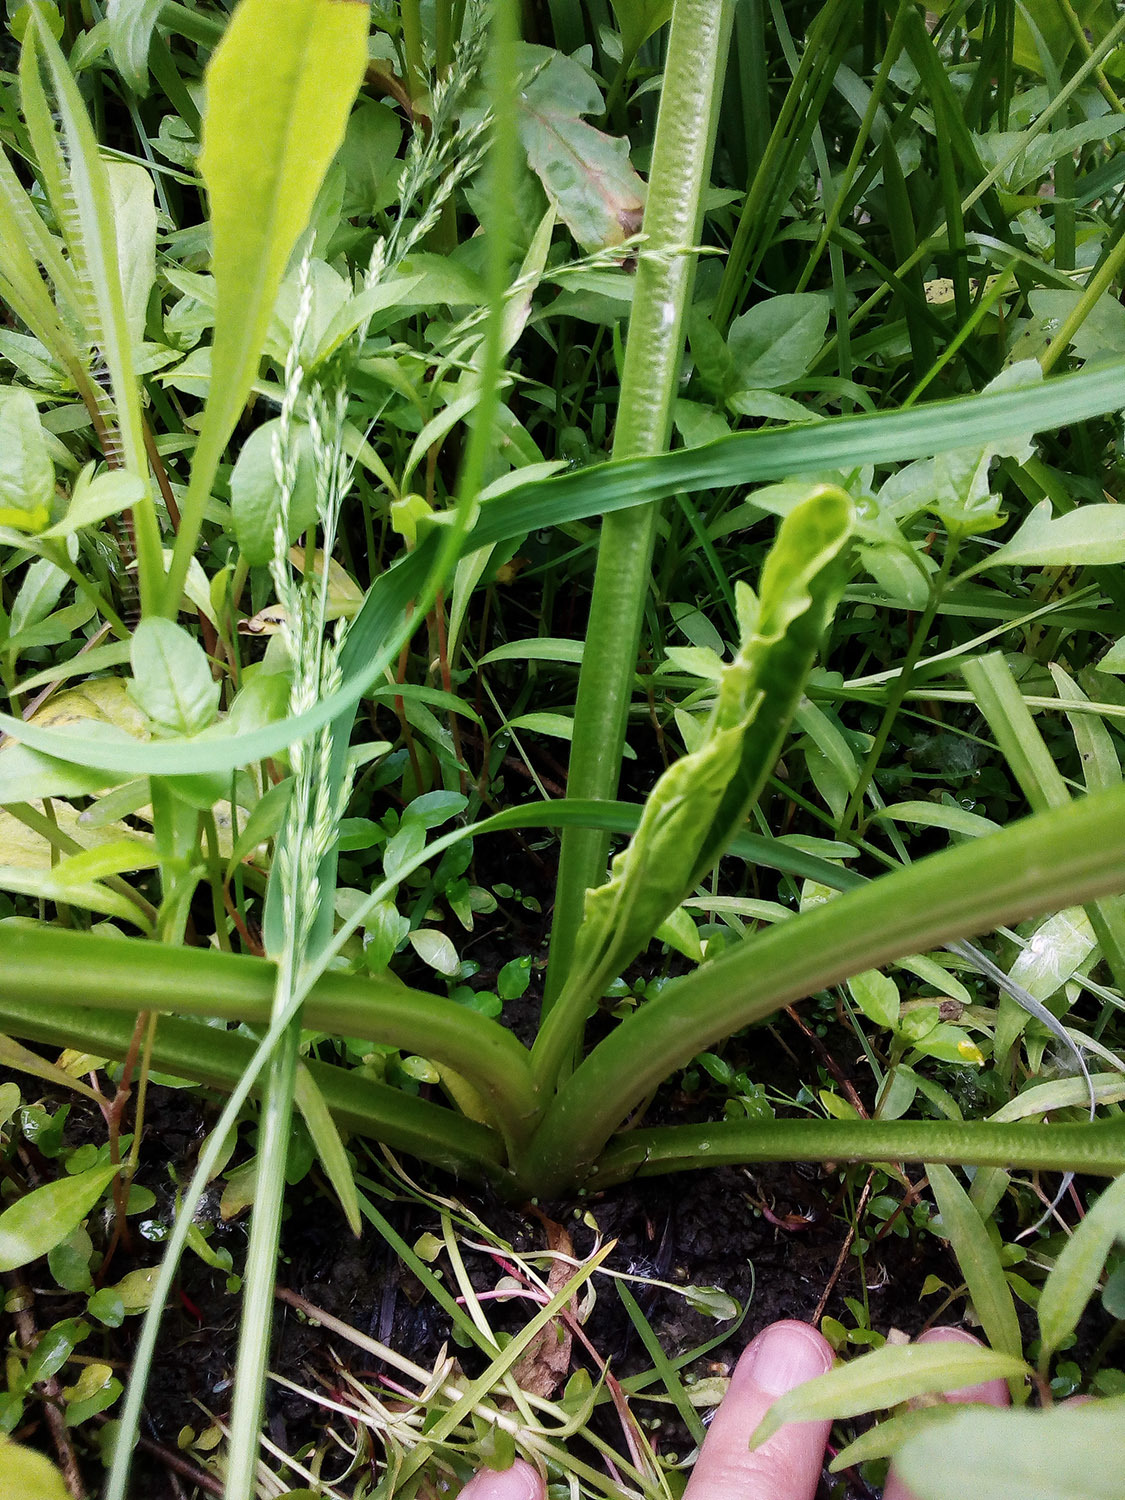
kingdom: Plantae
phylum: Tracheophyta
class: Magnoliopsida
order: Lamiales
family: Plantaginaceae
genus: Plantago
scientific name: Plantago major
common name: Common plantain
